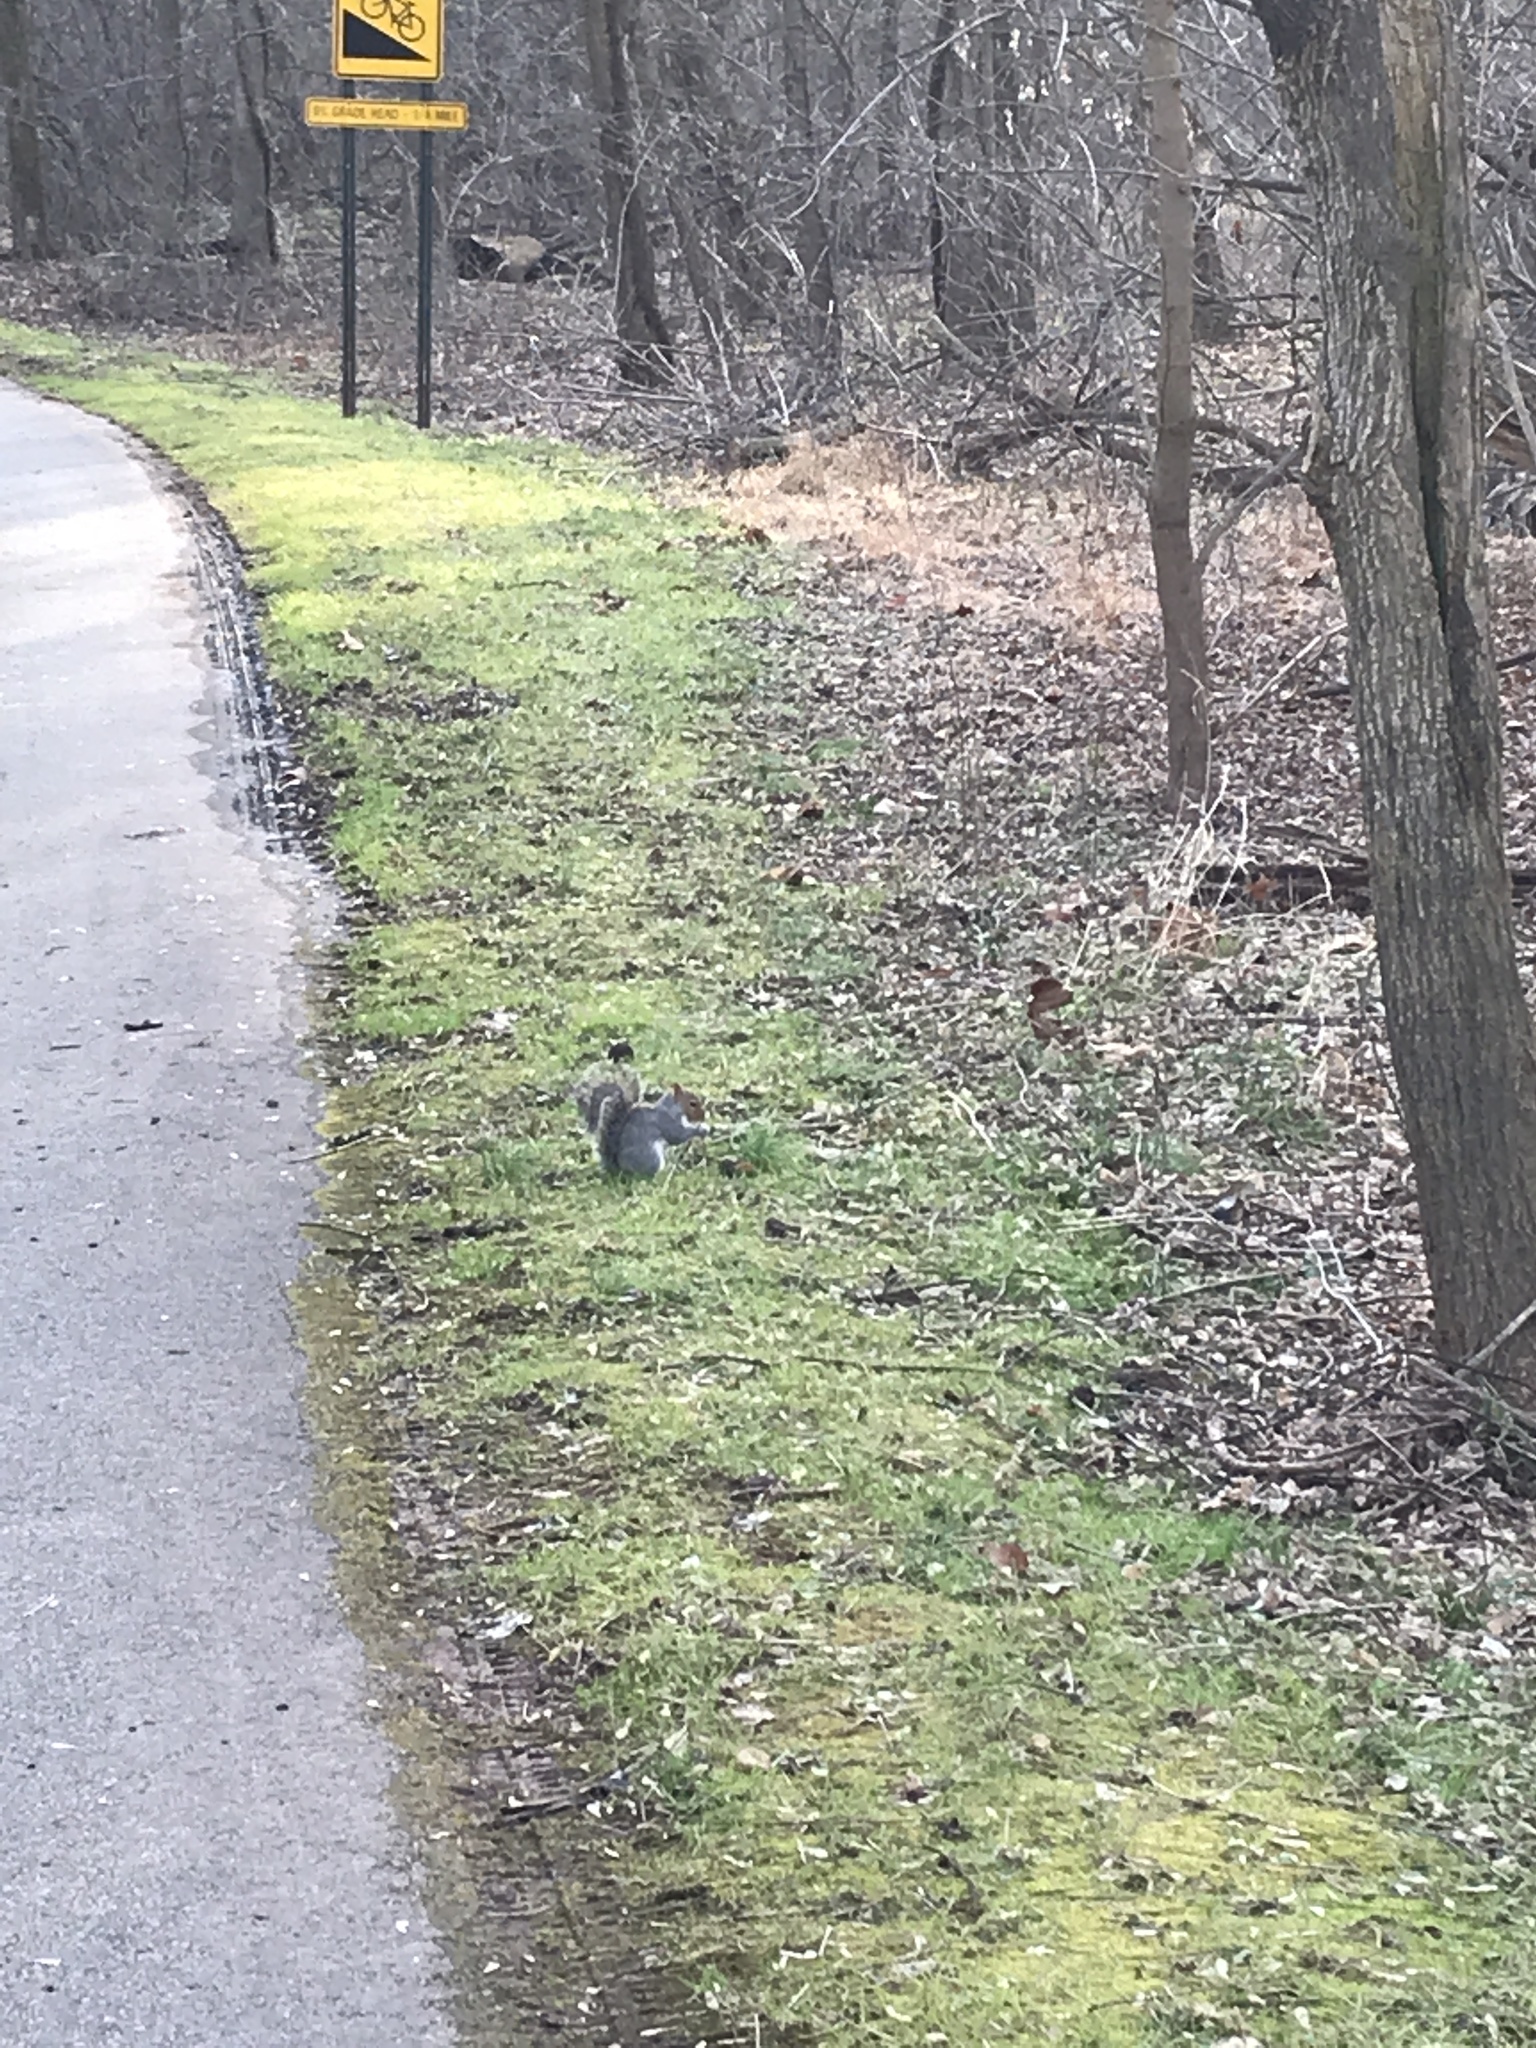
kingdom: Animalia
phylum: Chordata
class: Mammalia
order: Rodentia
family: Sciuridae
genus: Sciurus
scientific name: Sciurus carolinensis
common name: Eastern gray squirrel
